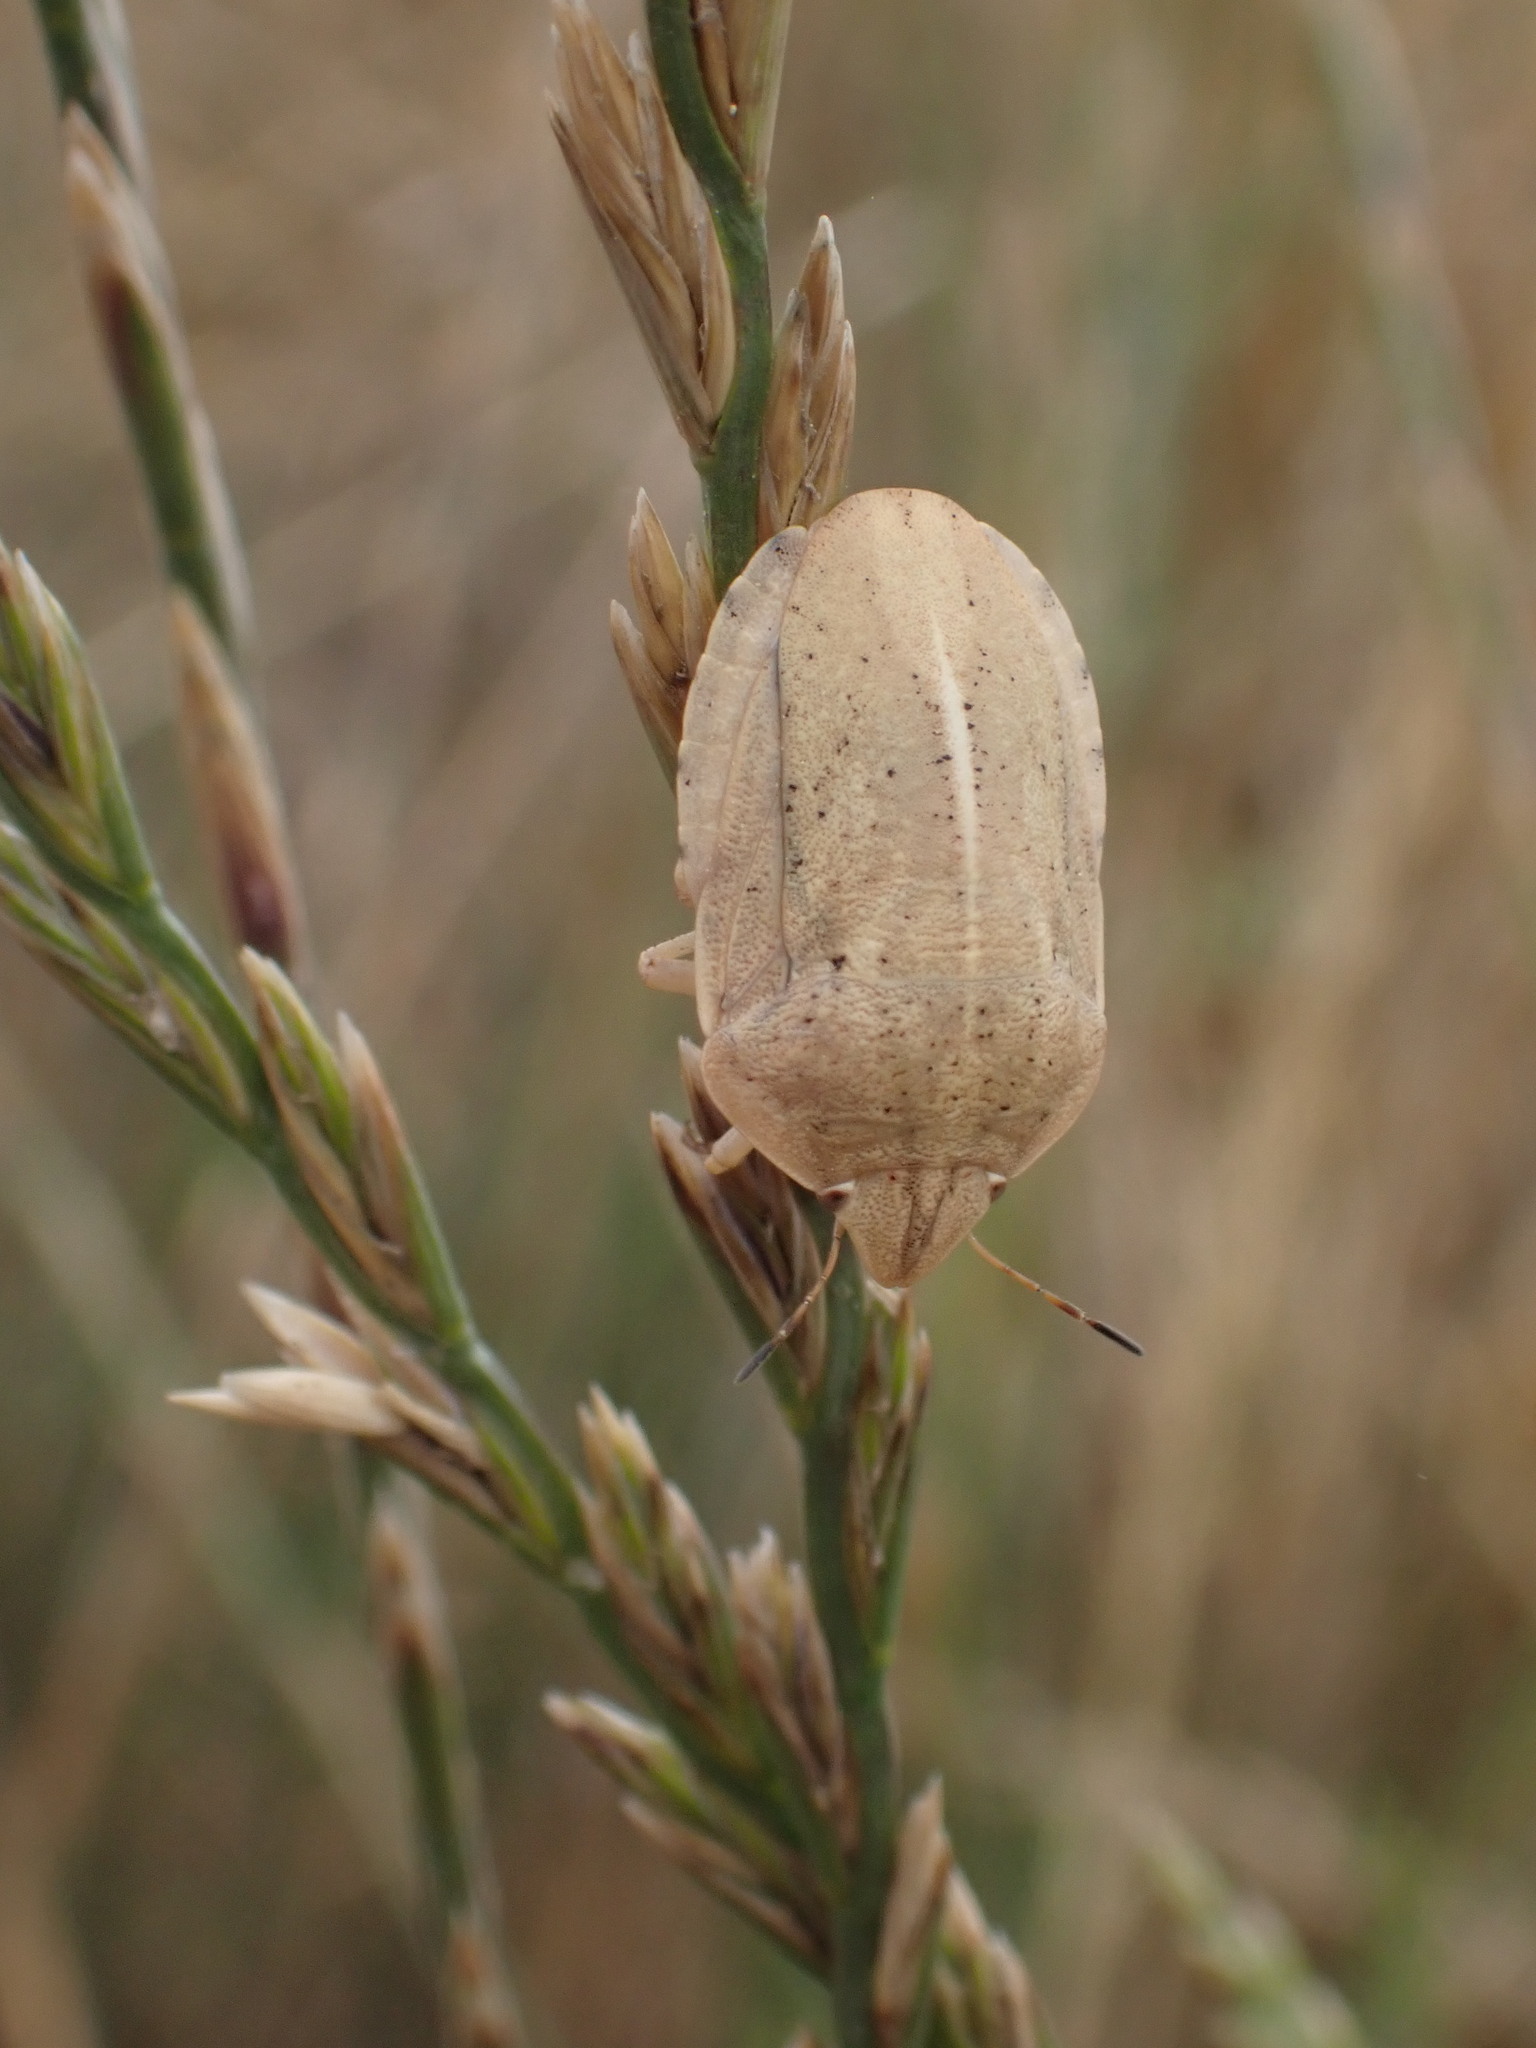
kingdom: Animalia
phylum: Arthropoda
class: Insecta
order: Hemiptera
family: Scutelleridae
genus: Eurygaster
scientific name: Eurygaster austriaca
